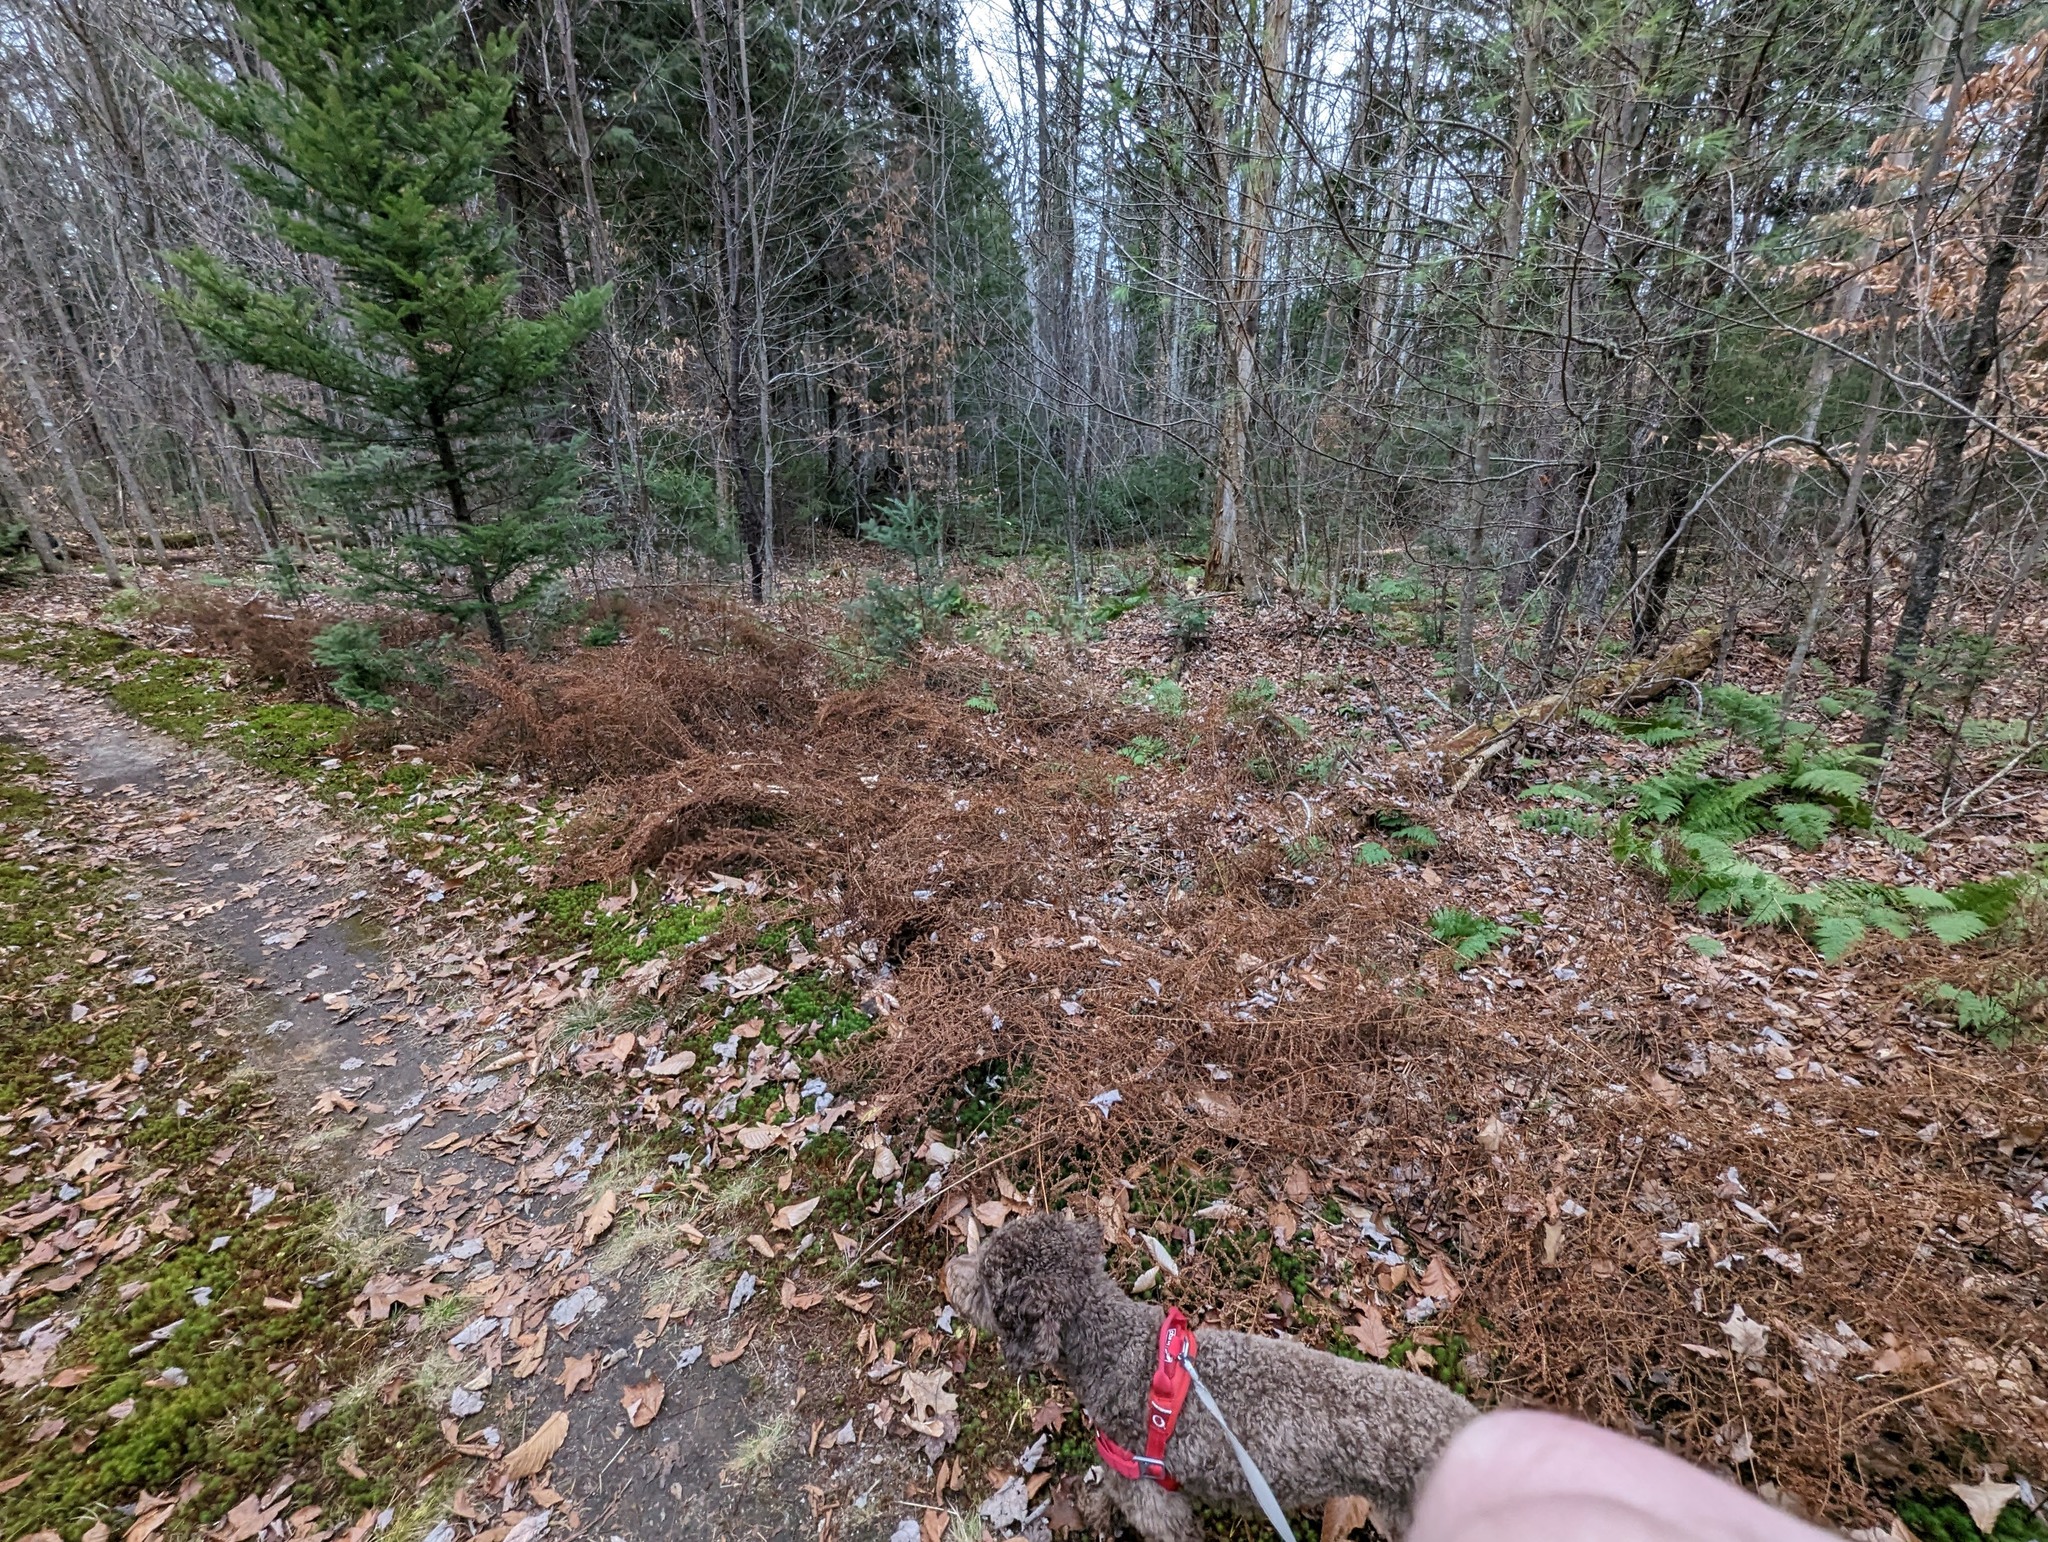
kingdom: Plantae
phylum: Tracheophyta
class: Polypodiopsida
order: Polypodiales
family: Dennstaedtiaceae
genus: Sitobolium
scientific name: Sitobolium punctilobum
